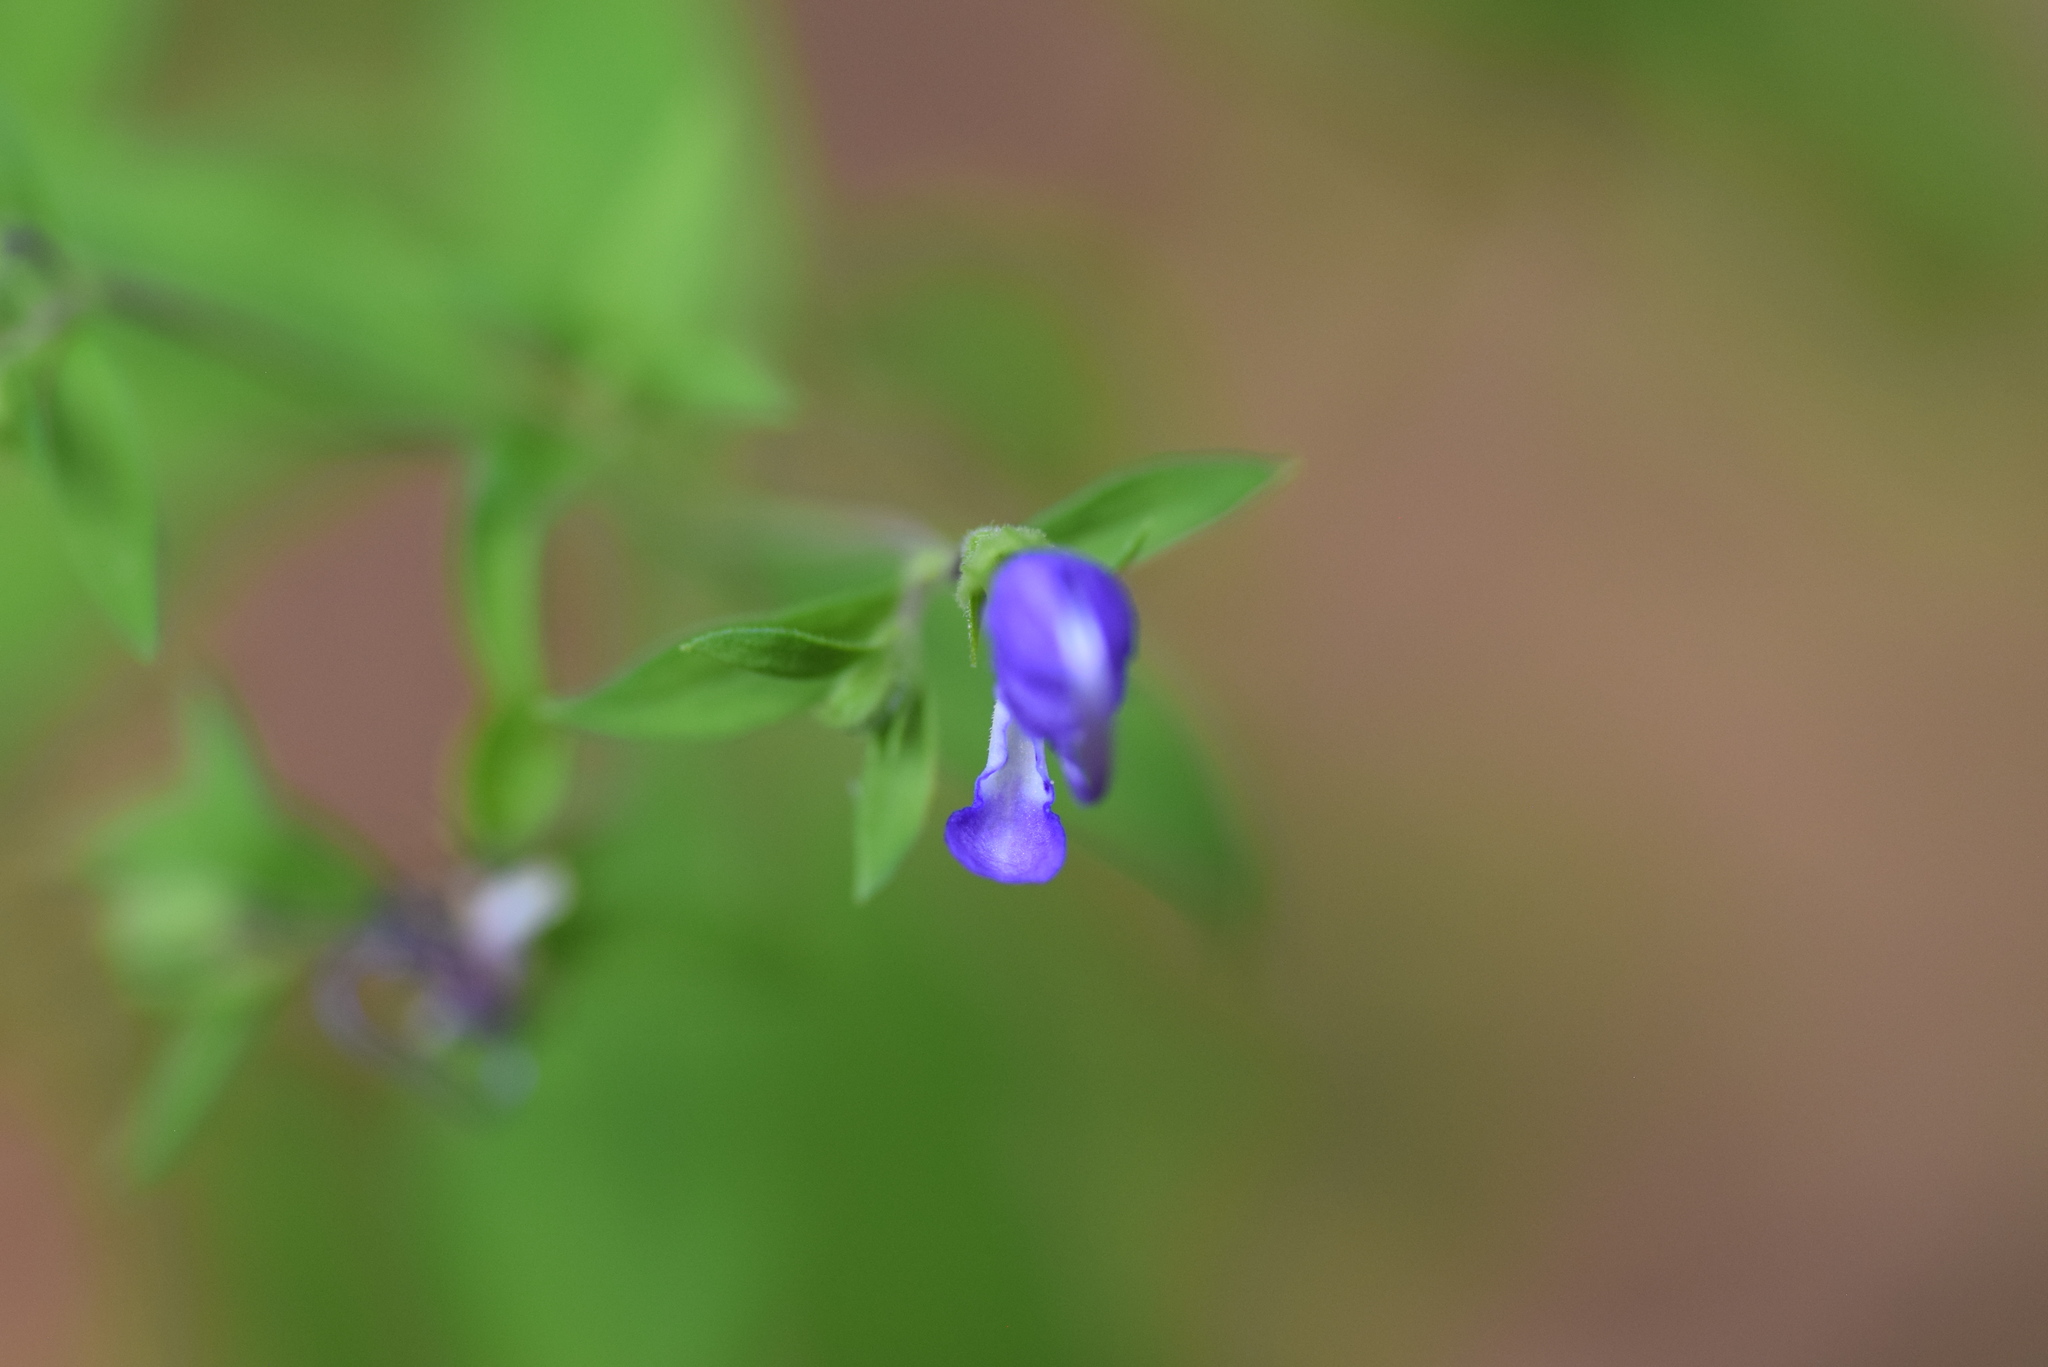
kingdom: Plantae
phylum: Tracheophyta
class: Magnoliopsida
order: Lamiales
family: Lamiaceae
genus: Trichostema
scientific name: Trichostema dichotomum
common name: Bastard pennyroyal
